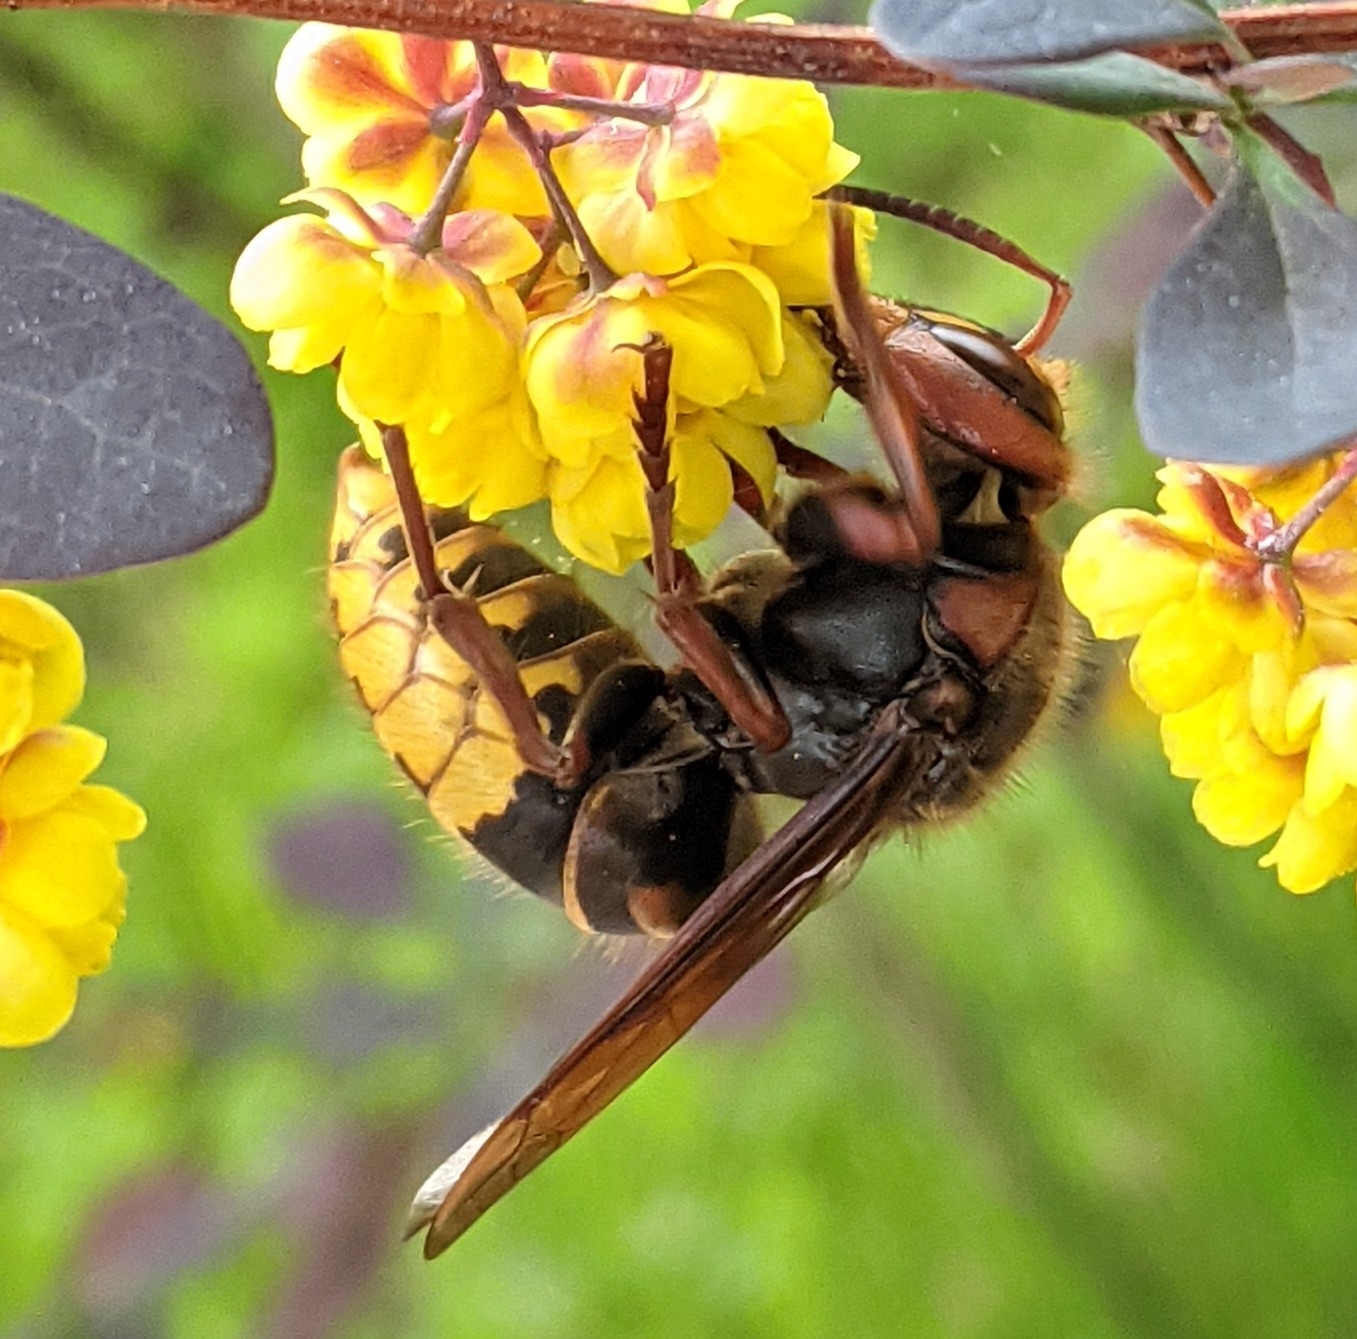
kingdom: Animalia
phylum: Arthropoda
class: Insecta
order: Hymenoptera
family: Vespidae
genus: Vespa
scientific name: Vespa crabro
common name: Hornet
